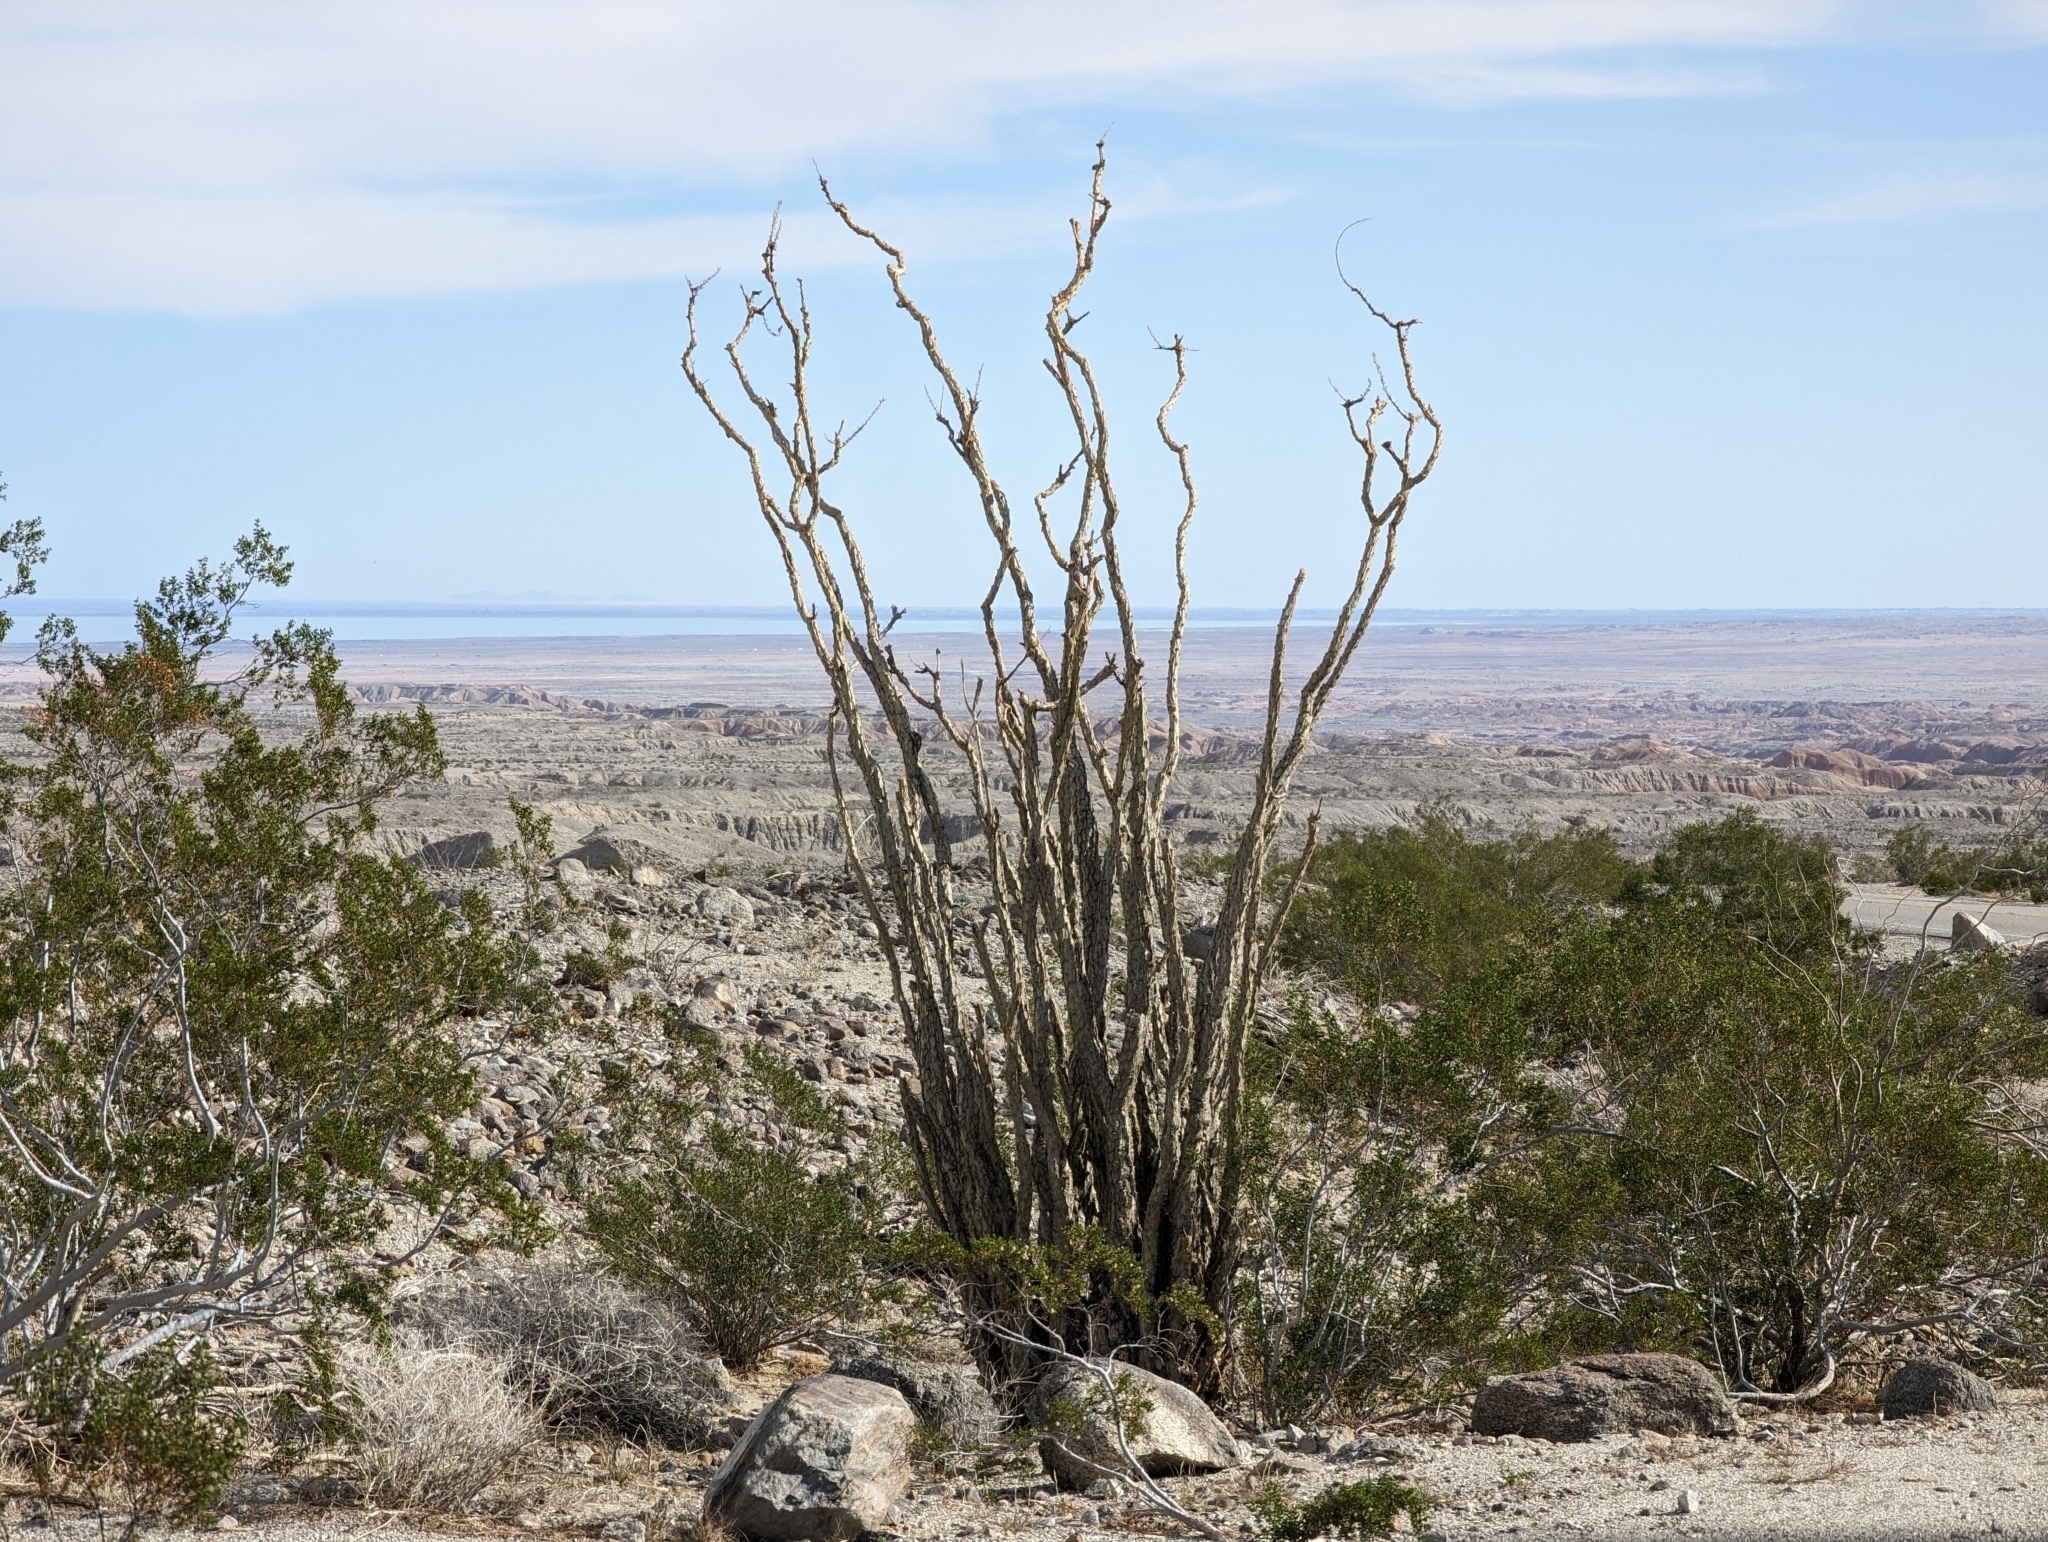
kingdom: Plantae
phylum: Tracheophyta
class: Magnoliopsida
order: Ericales
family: Fouquieriaceae
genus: Fouquieria
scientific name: Fouquieria splendens
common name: Vine-cactus
